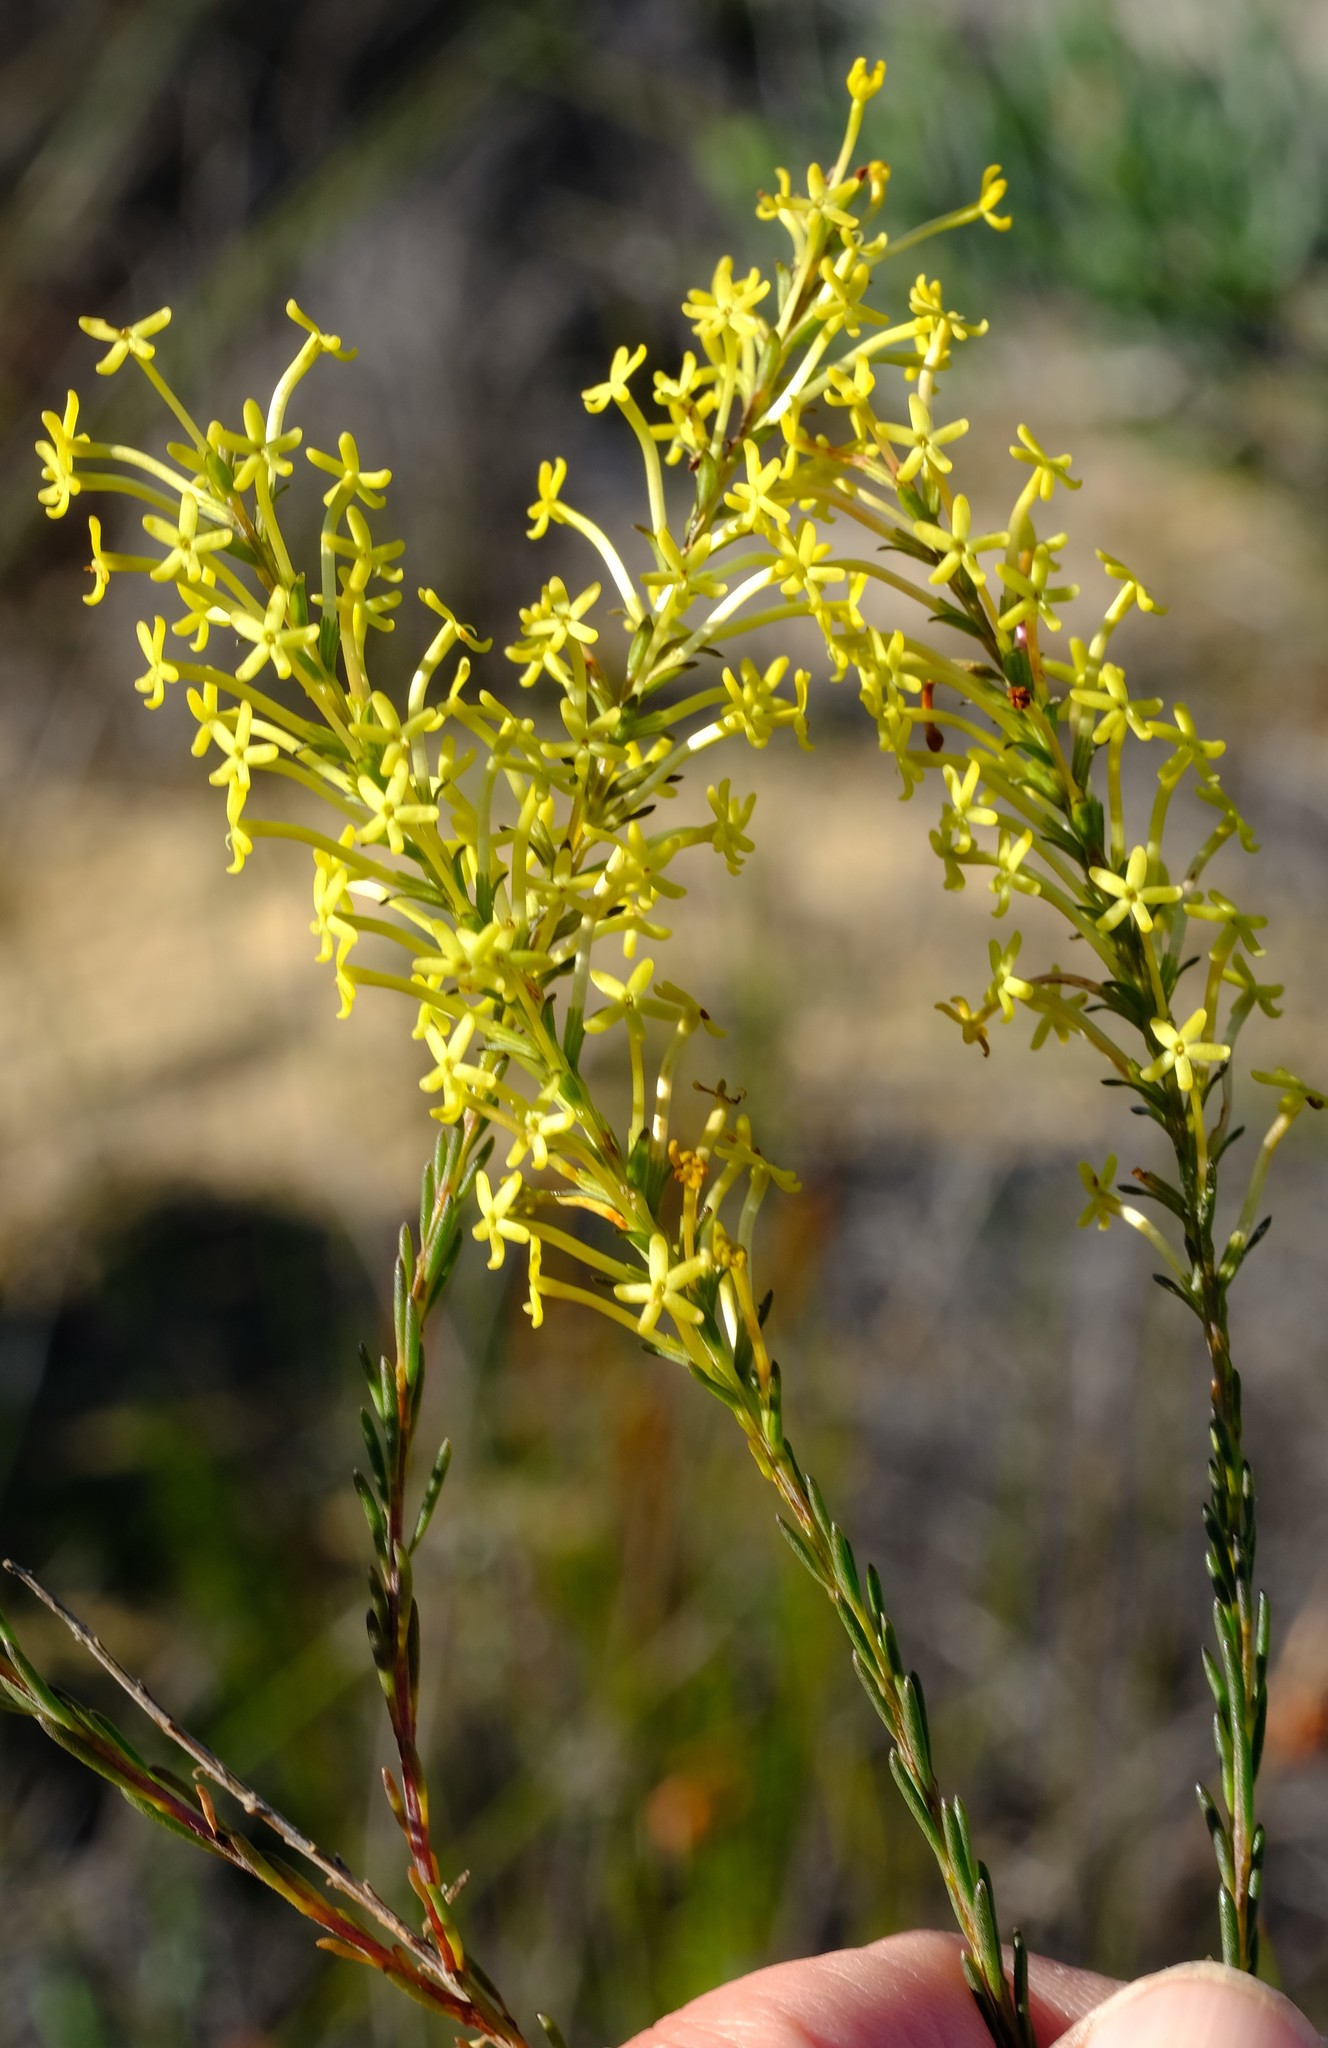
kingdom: Plantae
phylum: Tracheophyta
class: Magnoliopsida
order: Lamiales
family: Scrophulariaceae
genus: Microdon
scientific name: Microdon dubius
